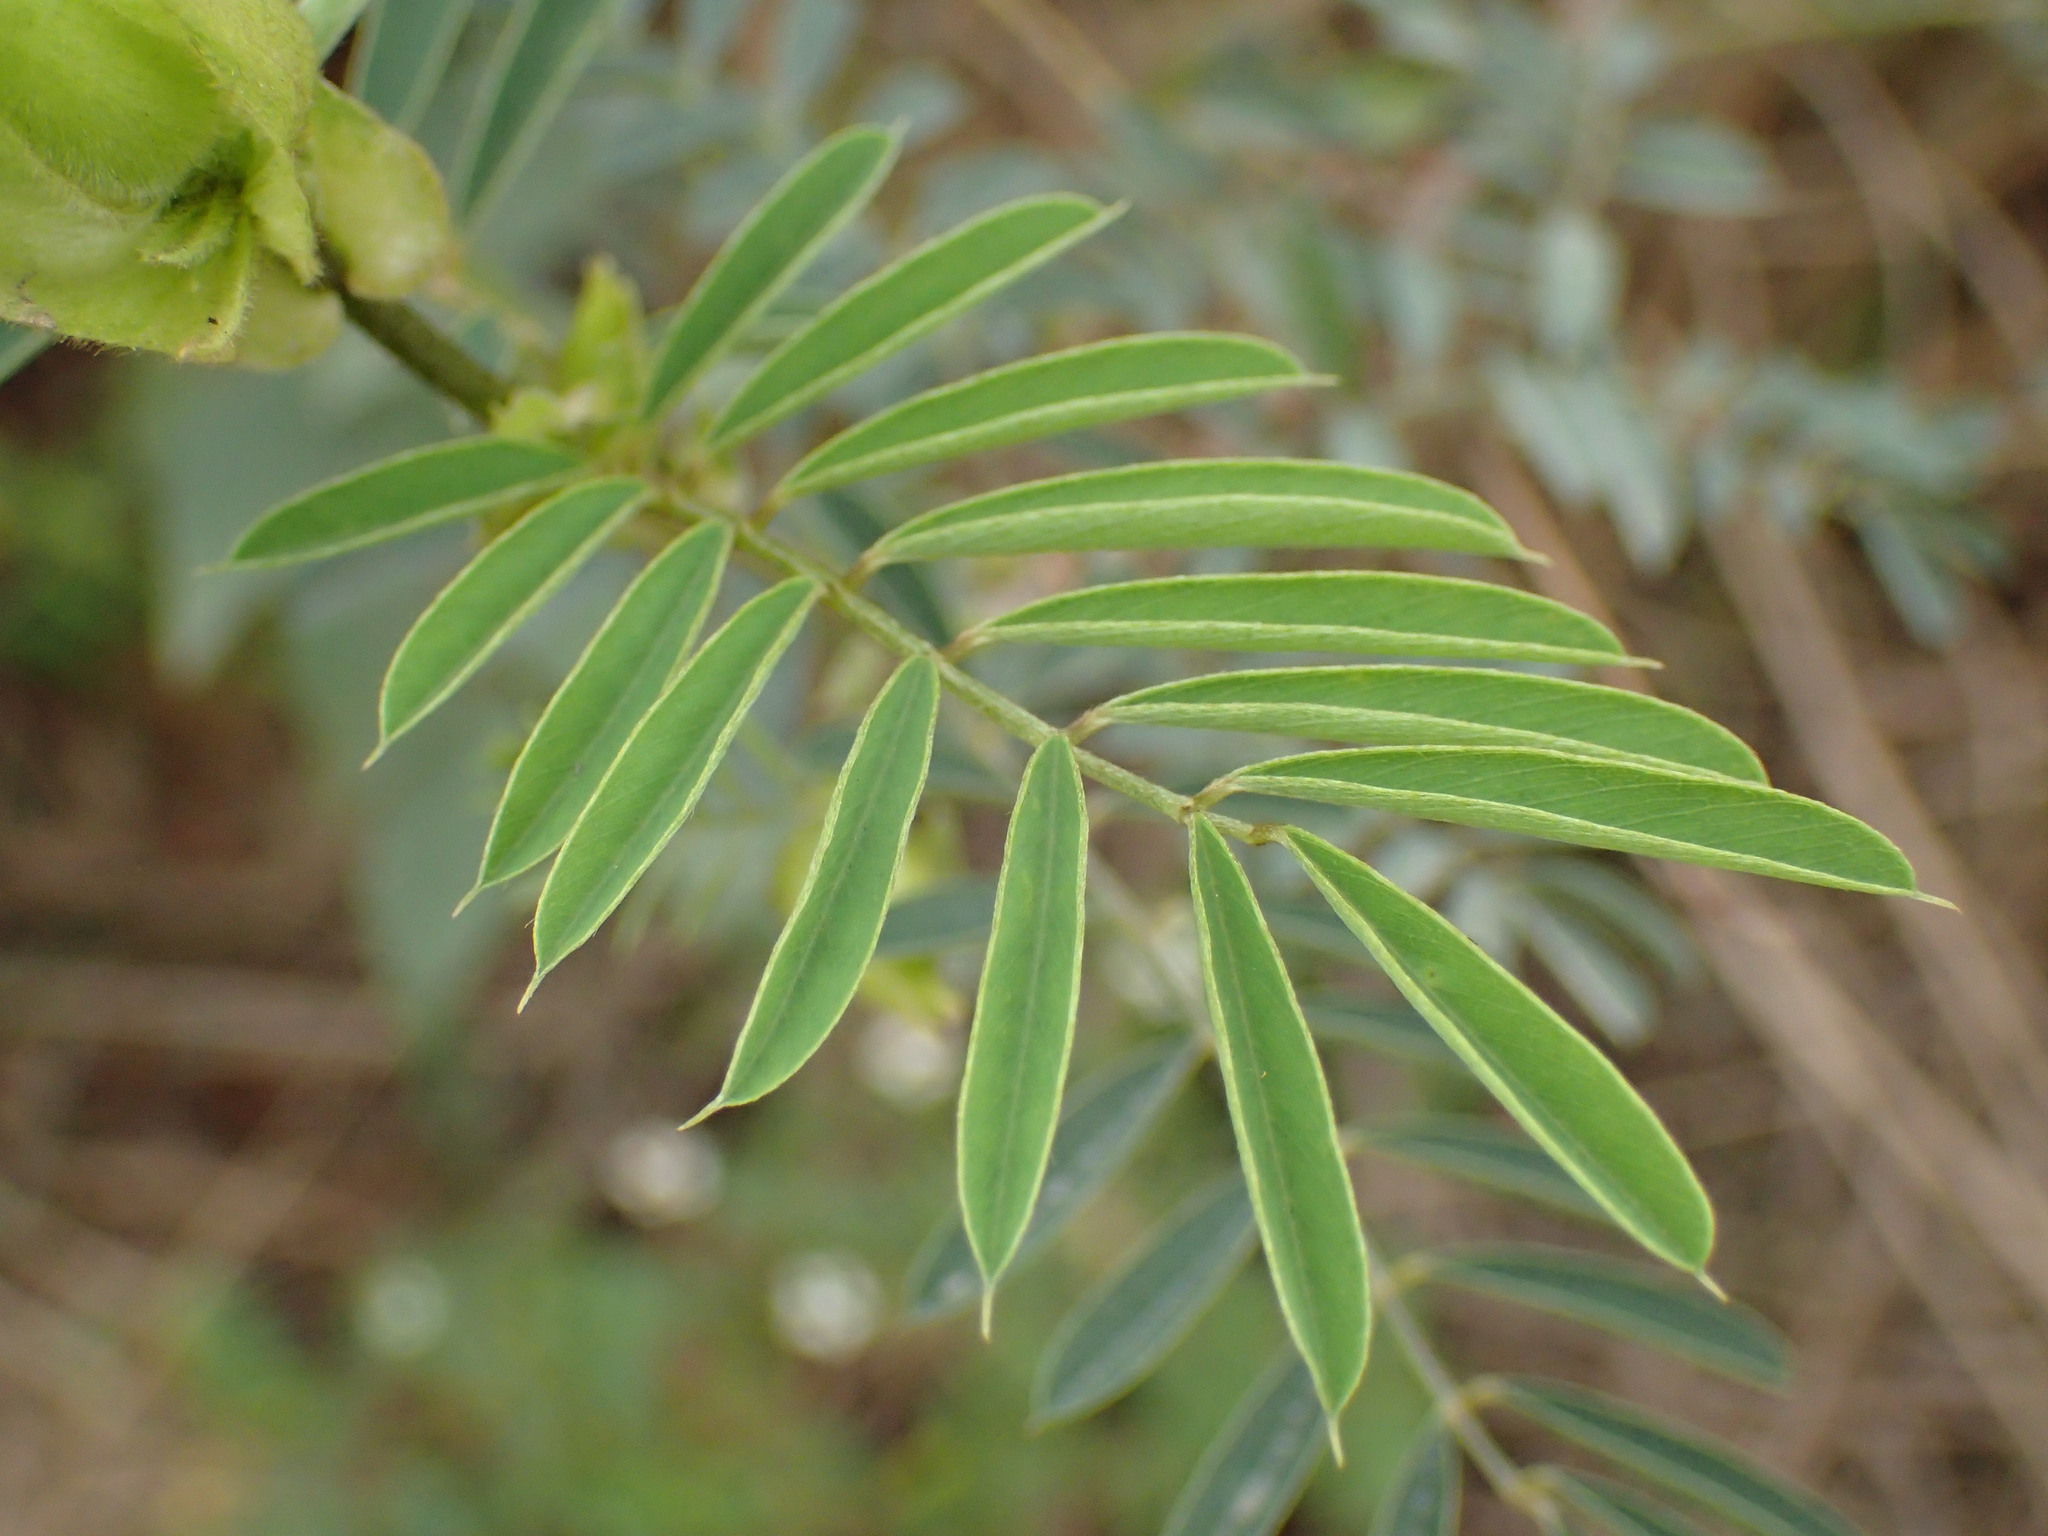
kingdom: Plantae
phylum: Tracheophyta
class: Magnoliopsida
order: Fabales
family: Fabaceae
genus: Tephrosia
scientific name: Tephrosia macropoda
